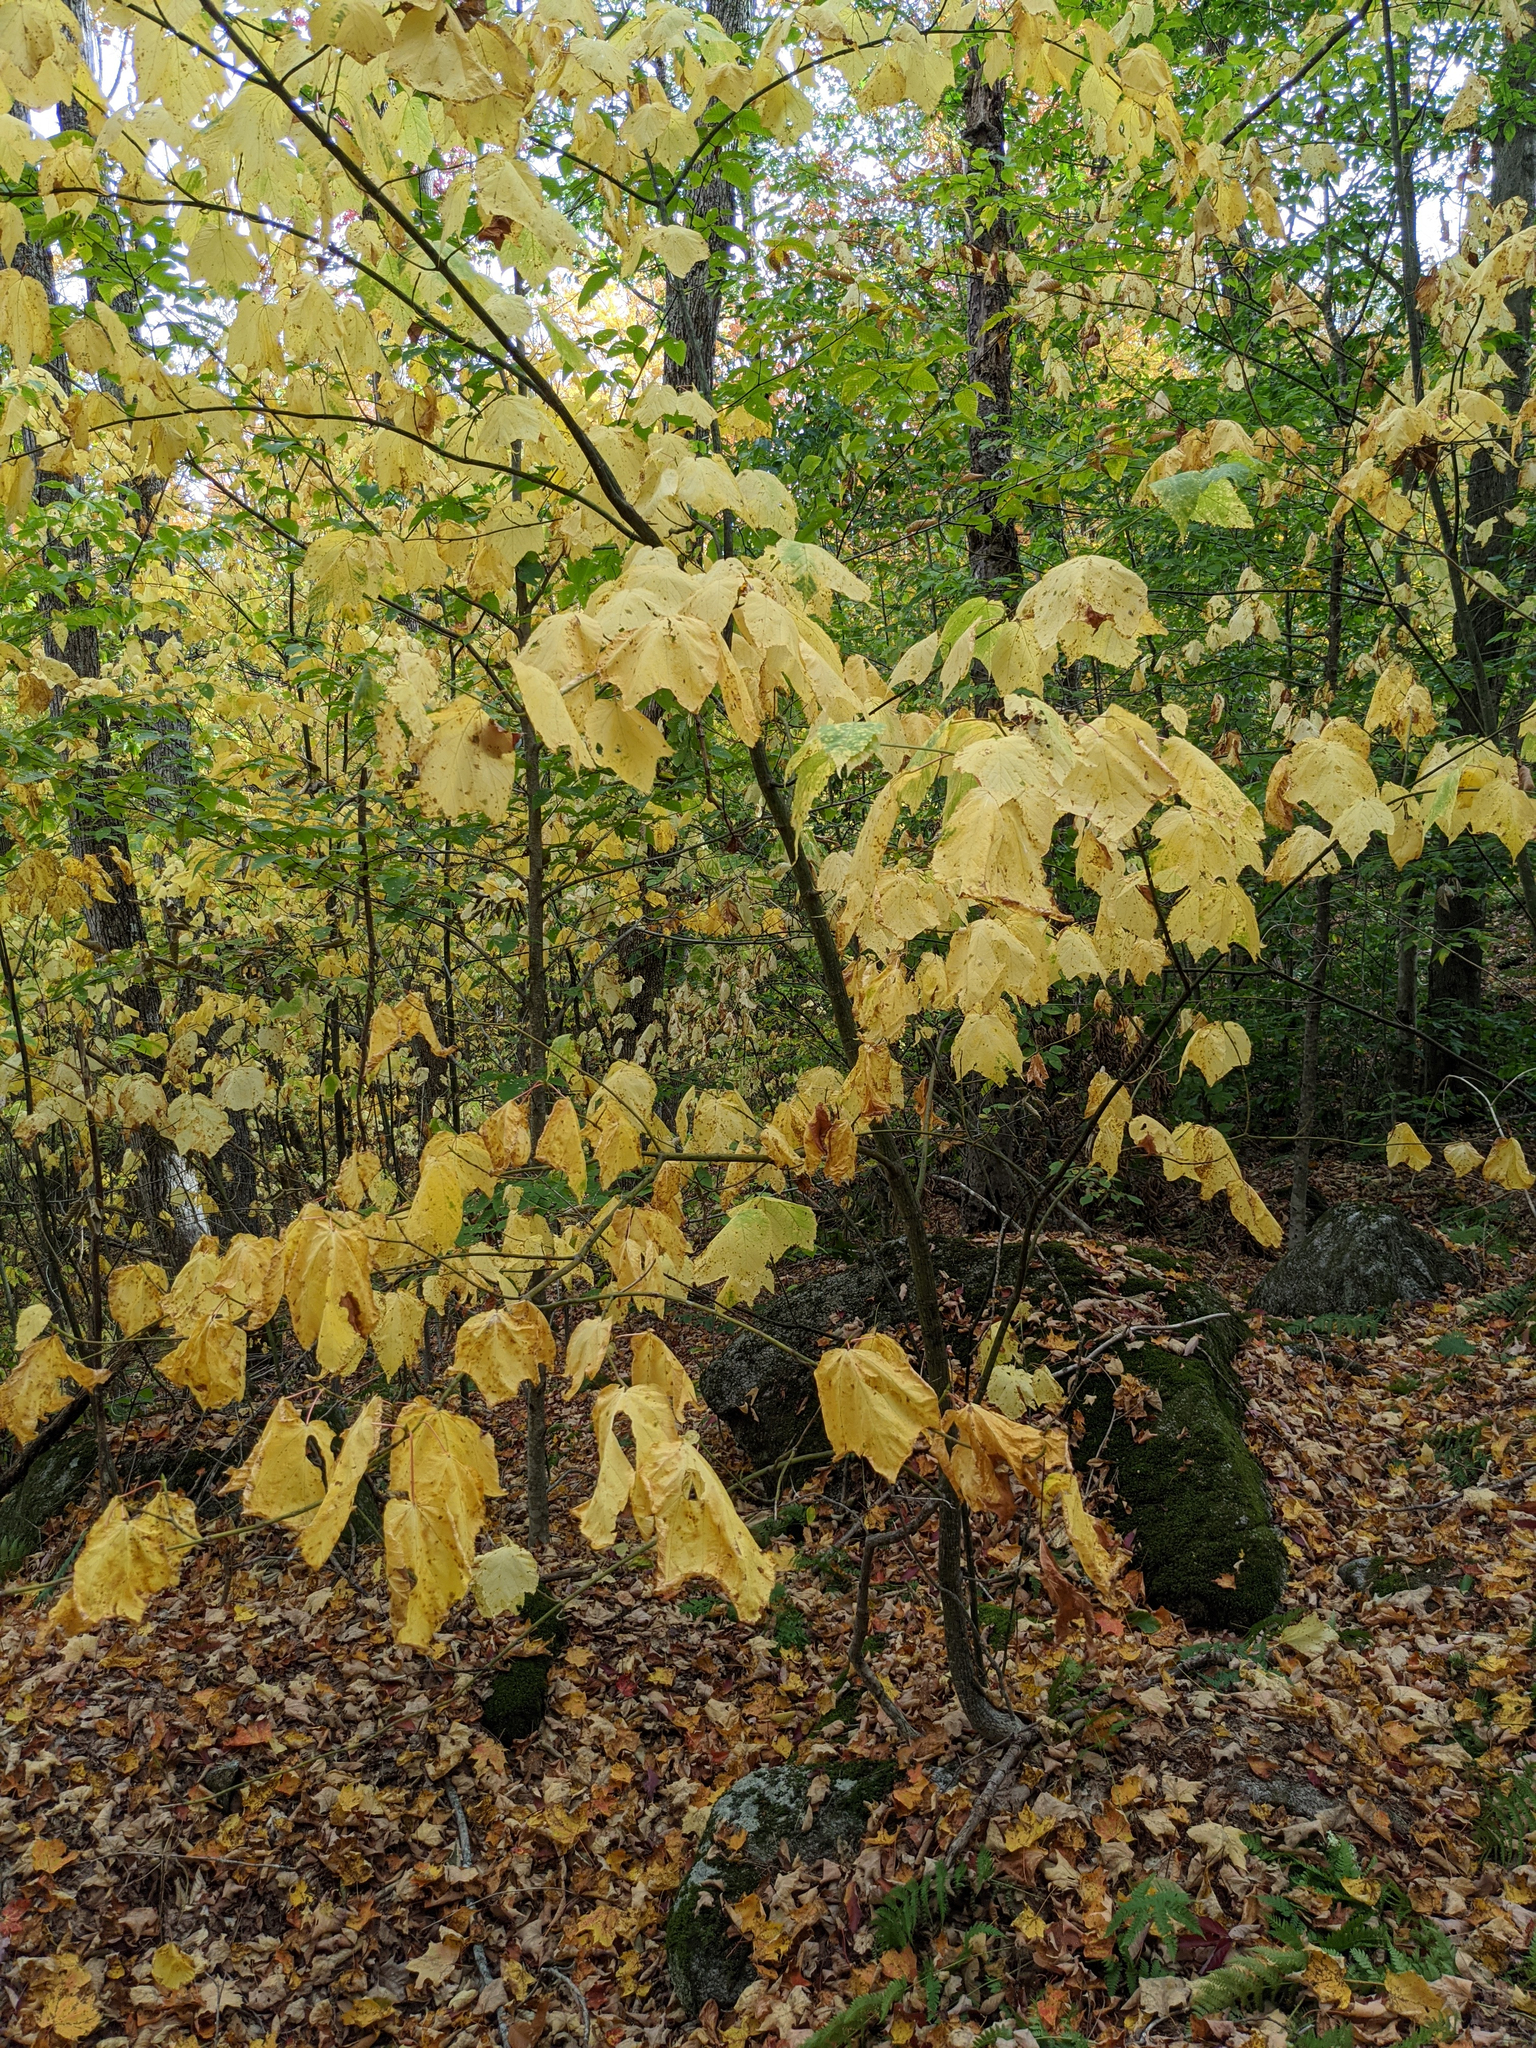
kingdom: Plantae
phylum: Tracheophyta
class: Magnoliopsida
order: Sapindales
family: Sapindaceae
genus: Acer
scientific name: Acer pensylvanicum
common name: Moosewood
